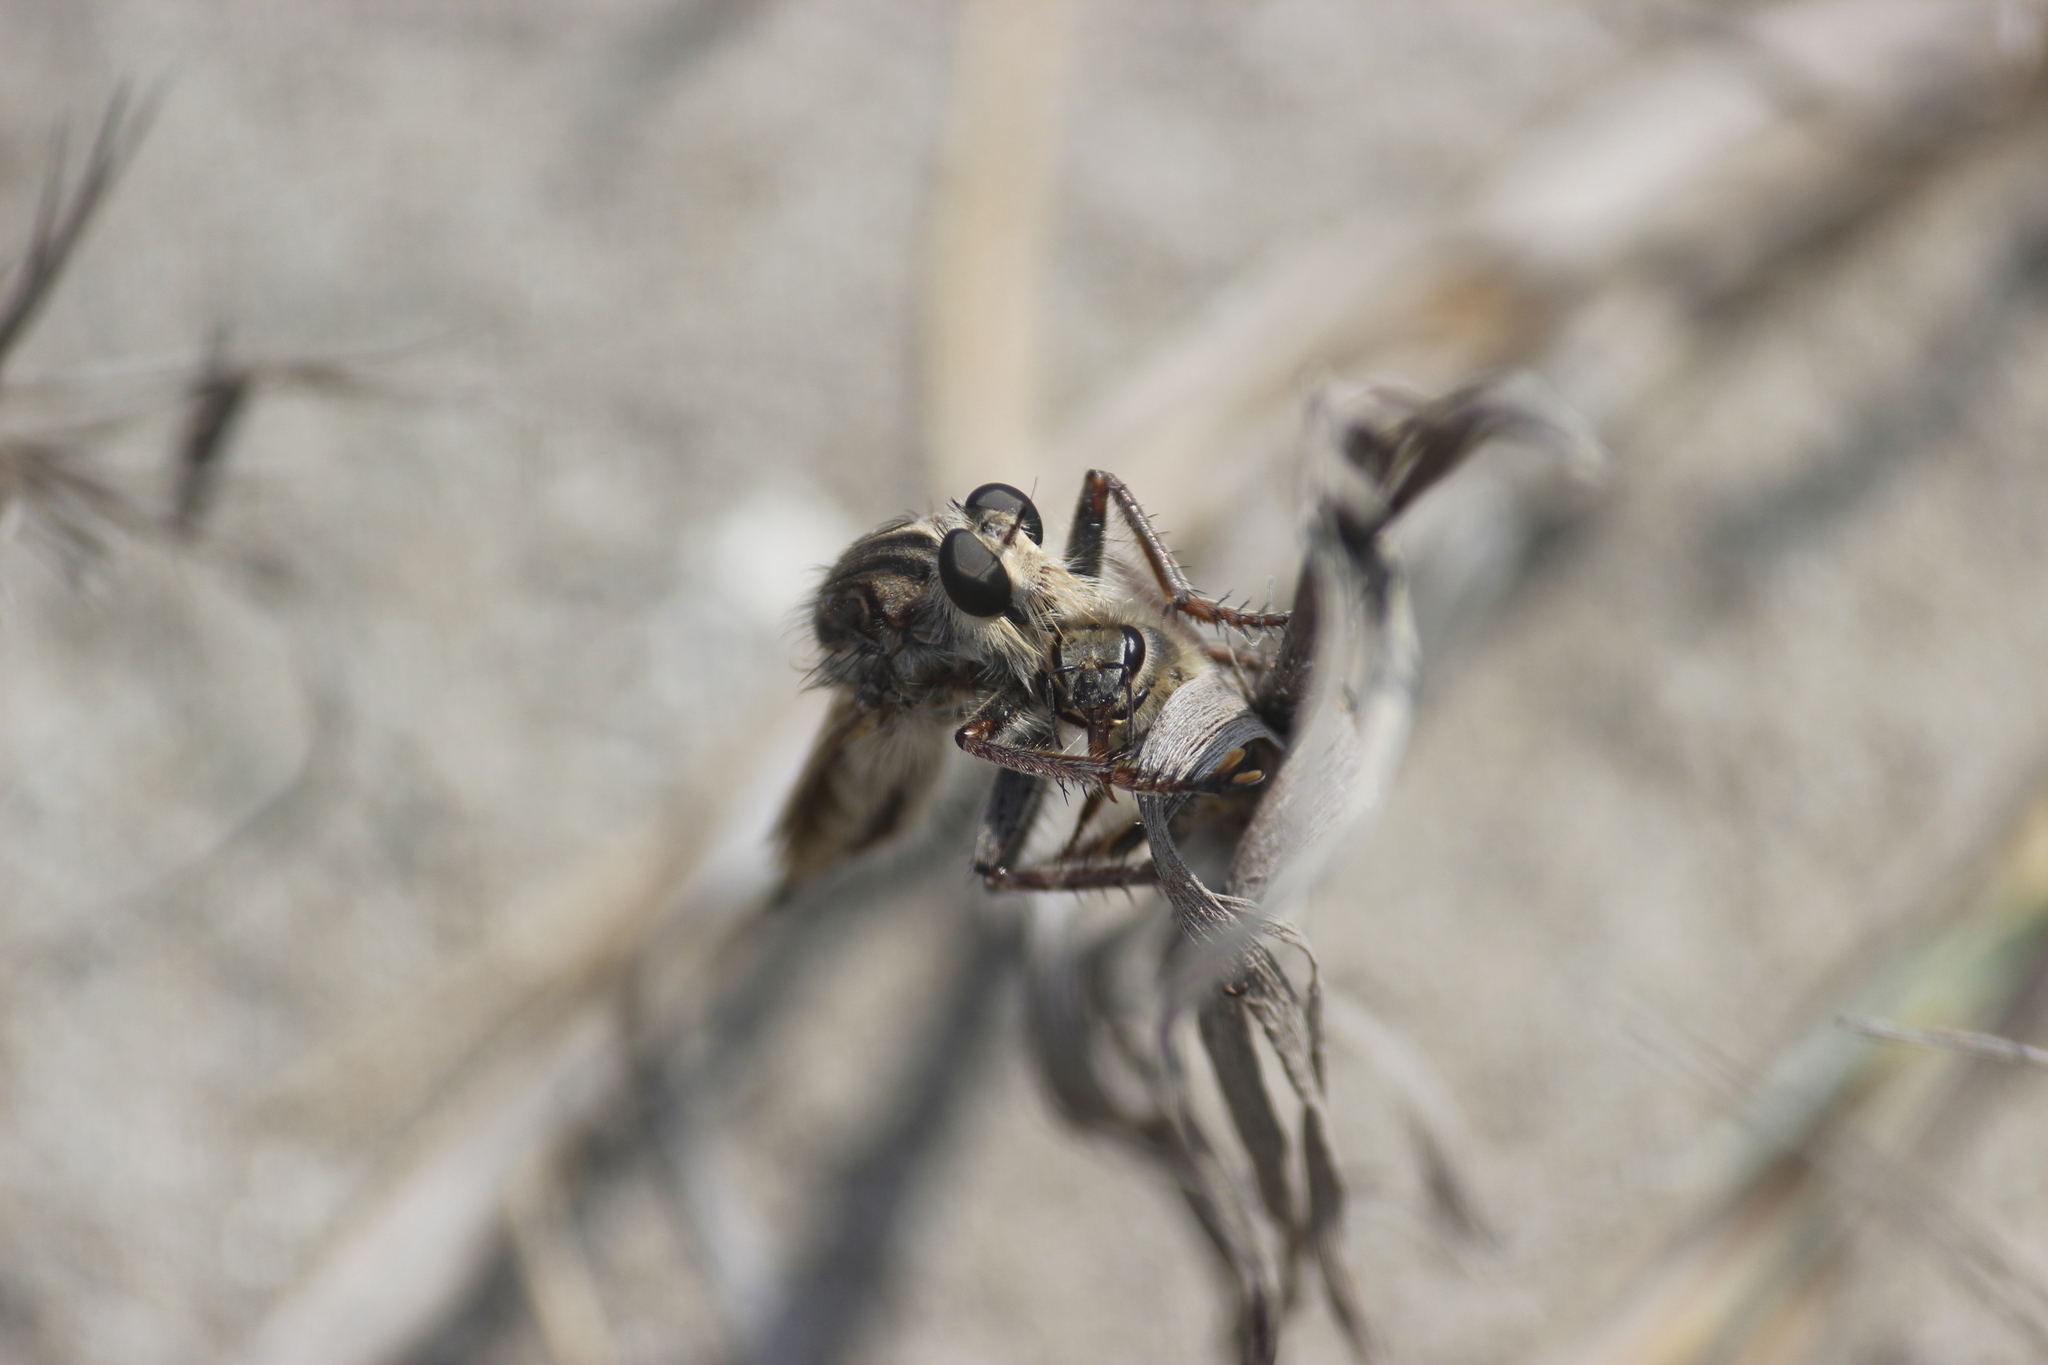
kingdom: Animalia
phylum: Arthropoda
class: Insecta
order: Hymenoptera
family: Apidae
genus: Apis
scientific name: Apis mellifera
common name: Honey bee
